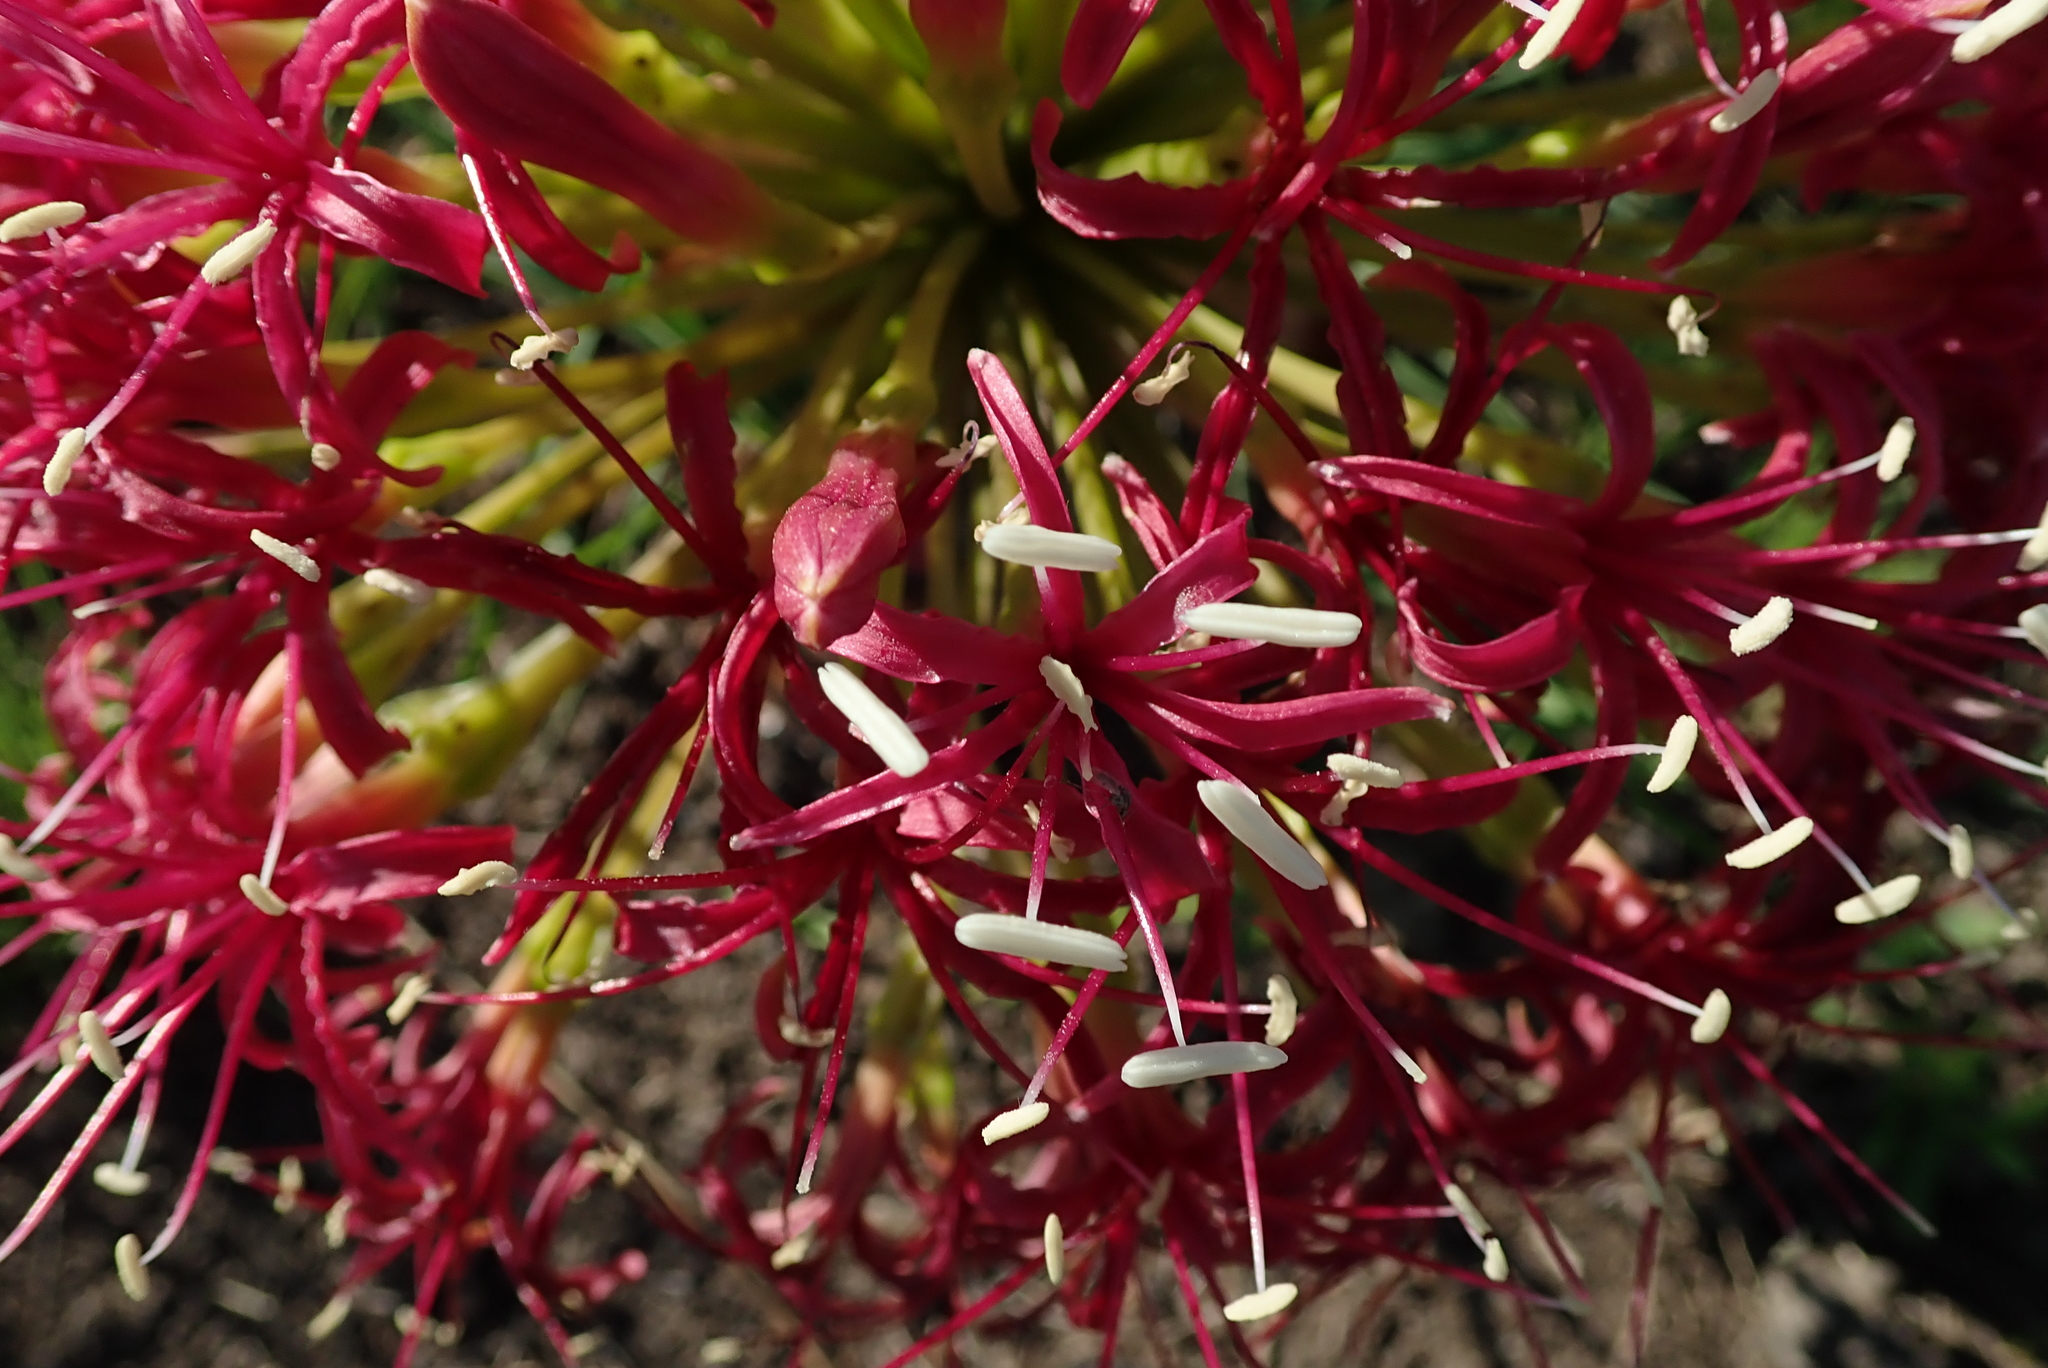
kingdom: Plantae
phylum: Tracheophyta
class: Liliopsida
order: Asparagales
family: Amaryllidaceae
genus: Boophone
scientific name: Boophone disticha
